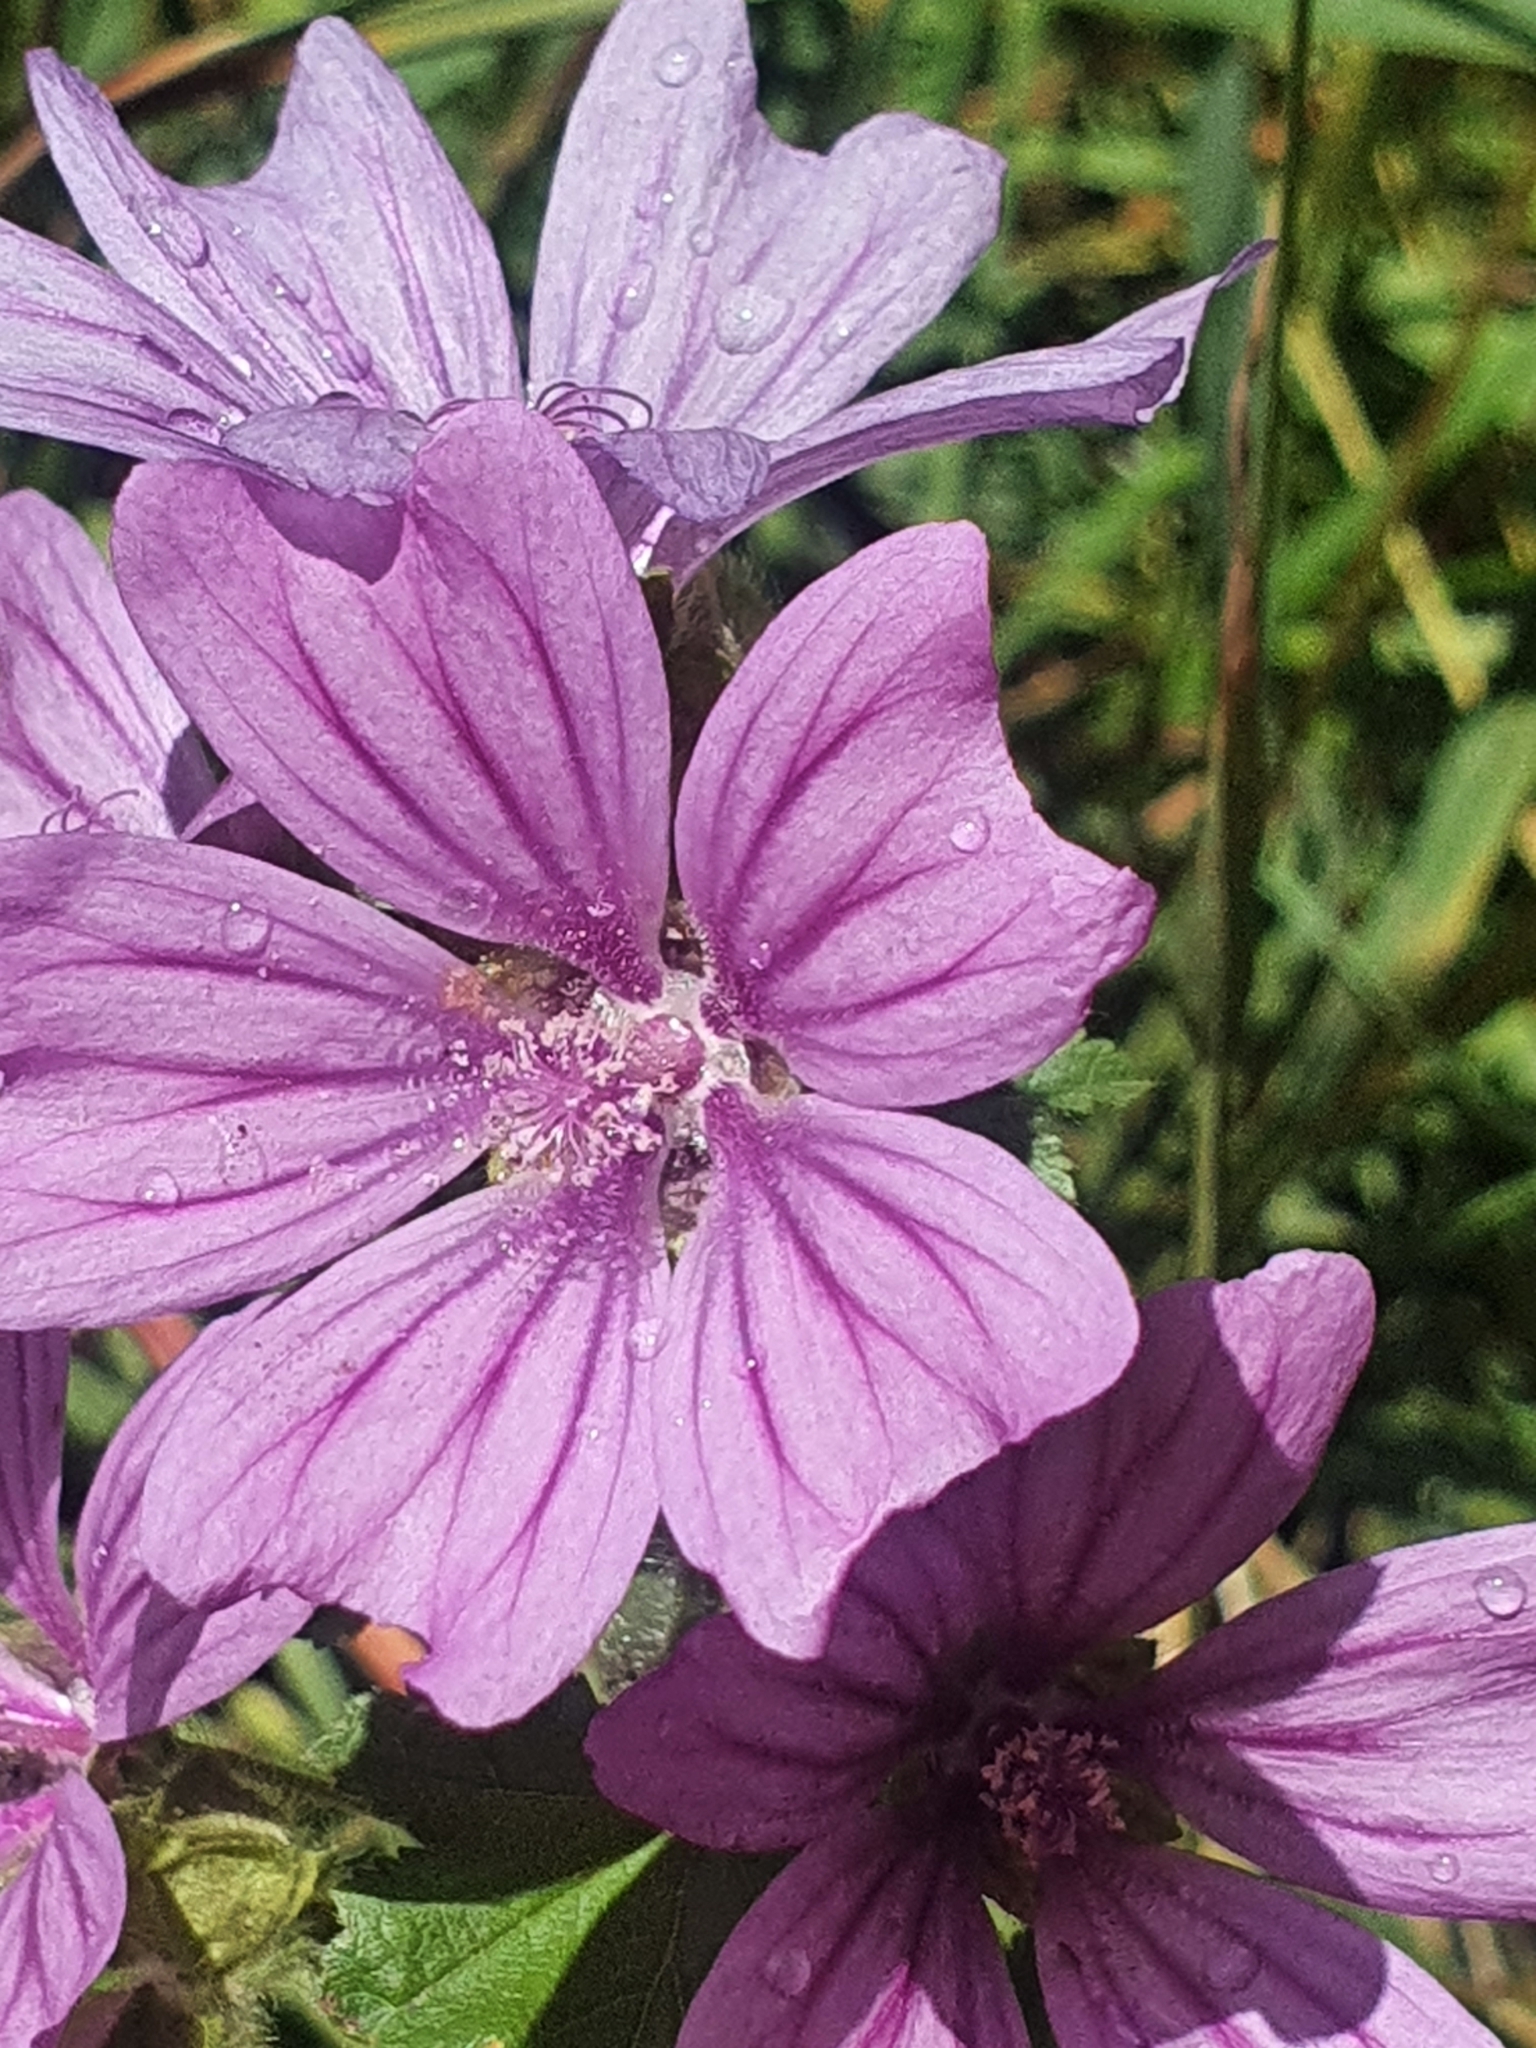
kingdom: Plantae
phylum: Tracheophyta
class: Magnoliopsida
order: Malvales
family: Malvaceae
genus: Malva
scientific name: Malva sylvestris
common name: Common mallow
